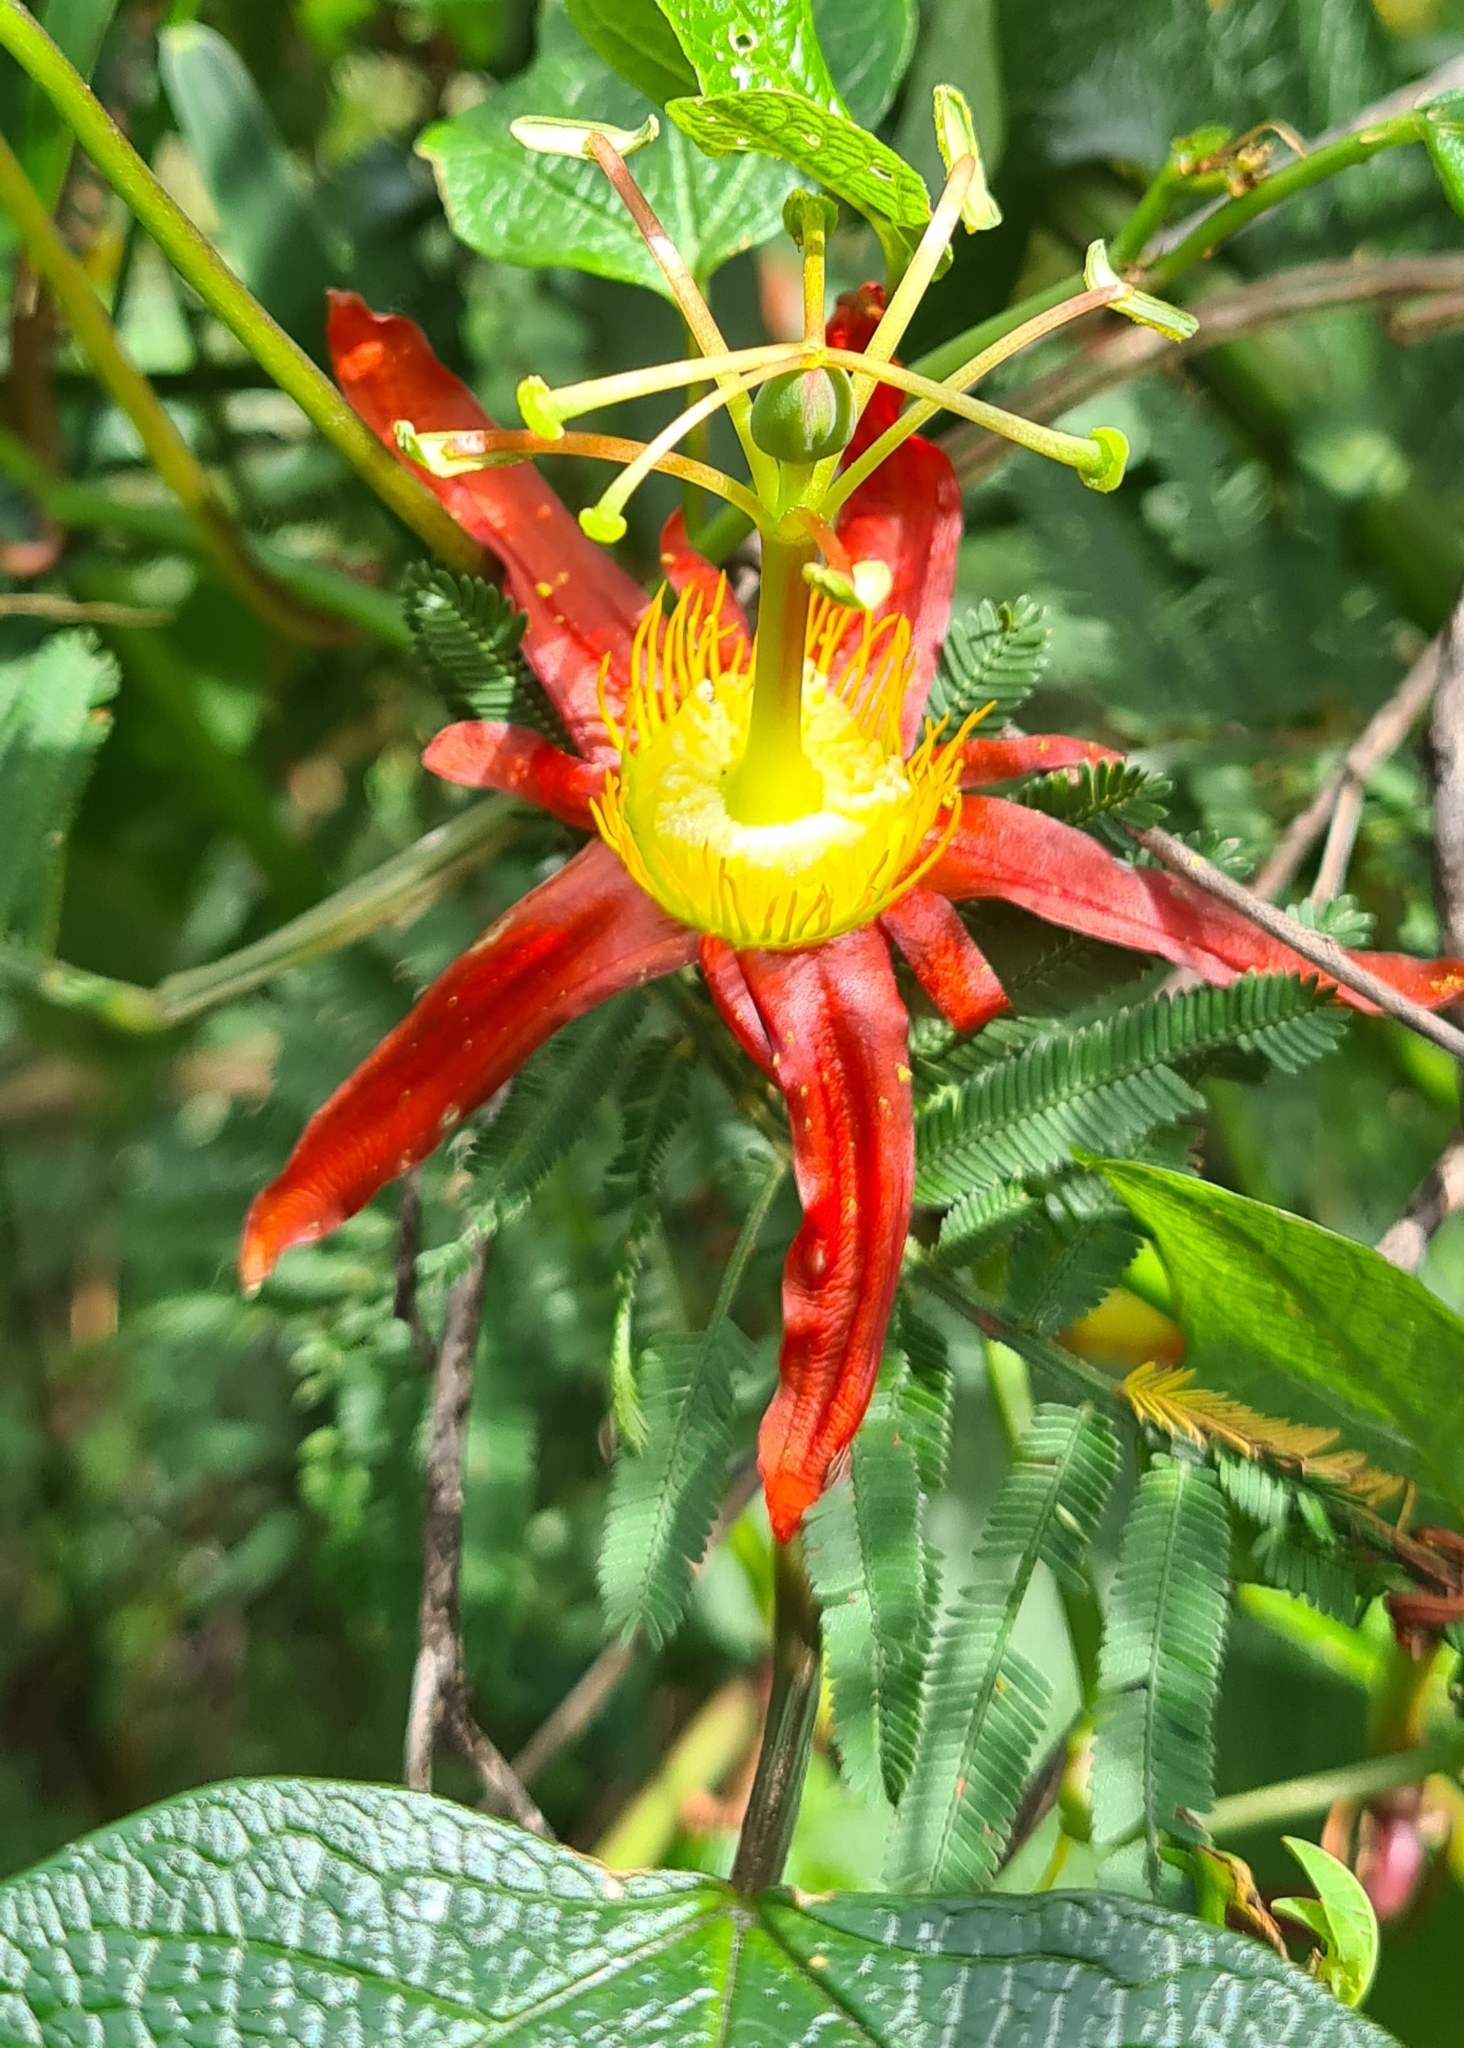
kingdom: Plantae
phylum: Tracheophyta
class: Magnoliopsida
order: Malpighiales
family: Passifloraceae
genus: Passiflora
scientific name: Passiflora cinnabarina
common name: Red passionflower
